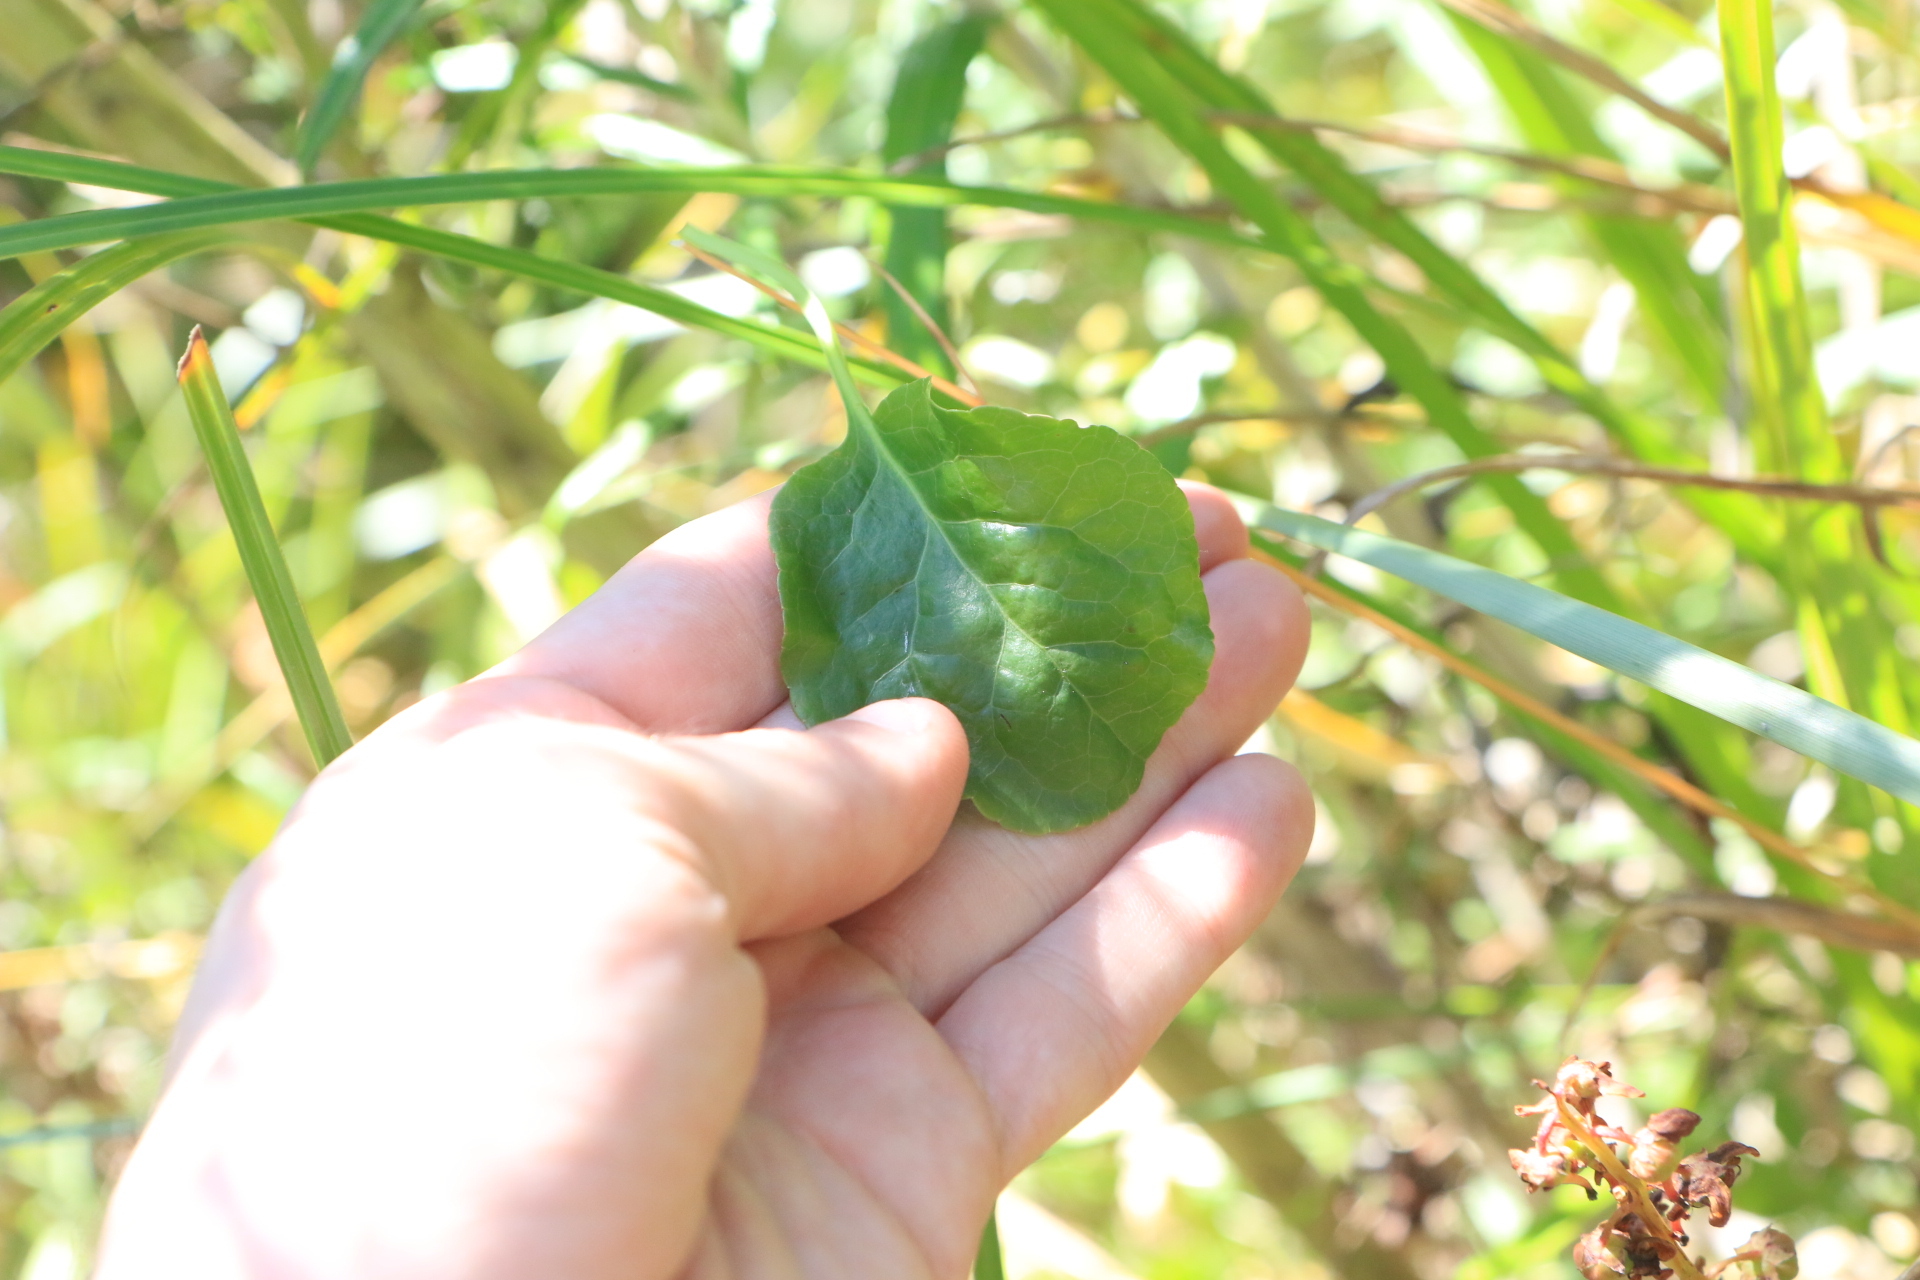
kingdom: Plantae
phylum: Tracheophyta
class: Magnoliopsida
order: Ericales
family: Ericaceae
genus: Pyrola
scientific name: Pyrola asarifolia
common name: Bog wintergreen
